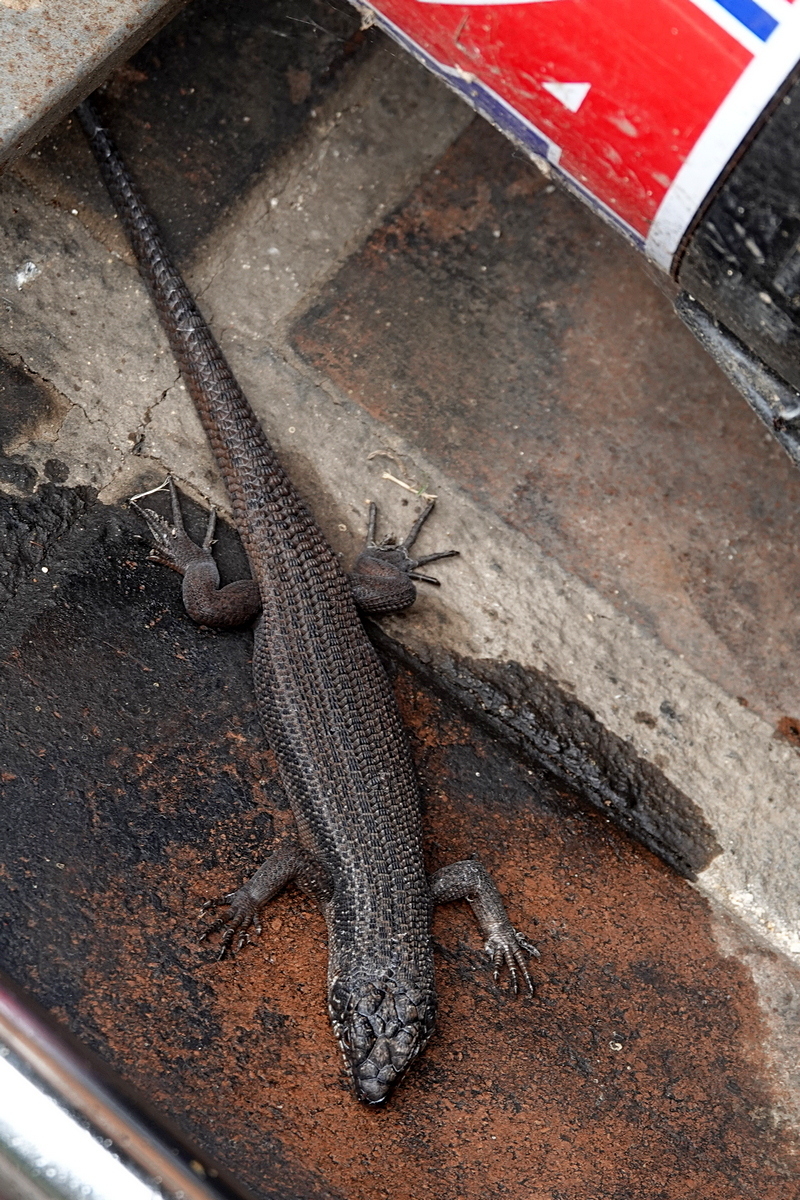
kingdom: Animalia
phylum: Chordata
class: Squamata
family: Scincidae
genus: Egernia
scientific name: Egernia saxatilis
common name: Black crevice-skink
